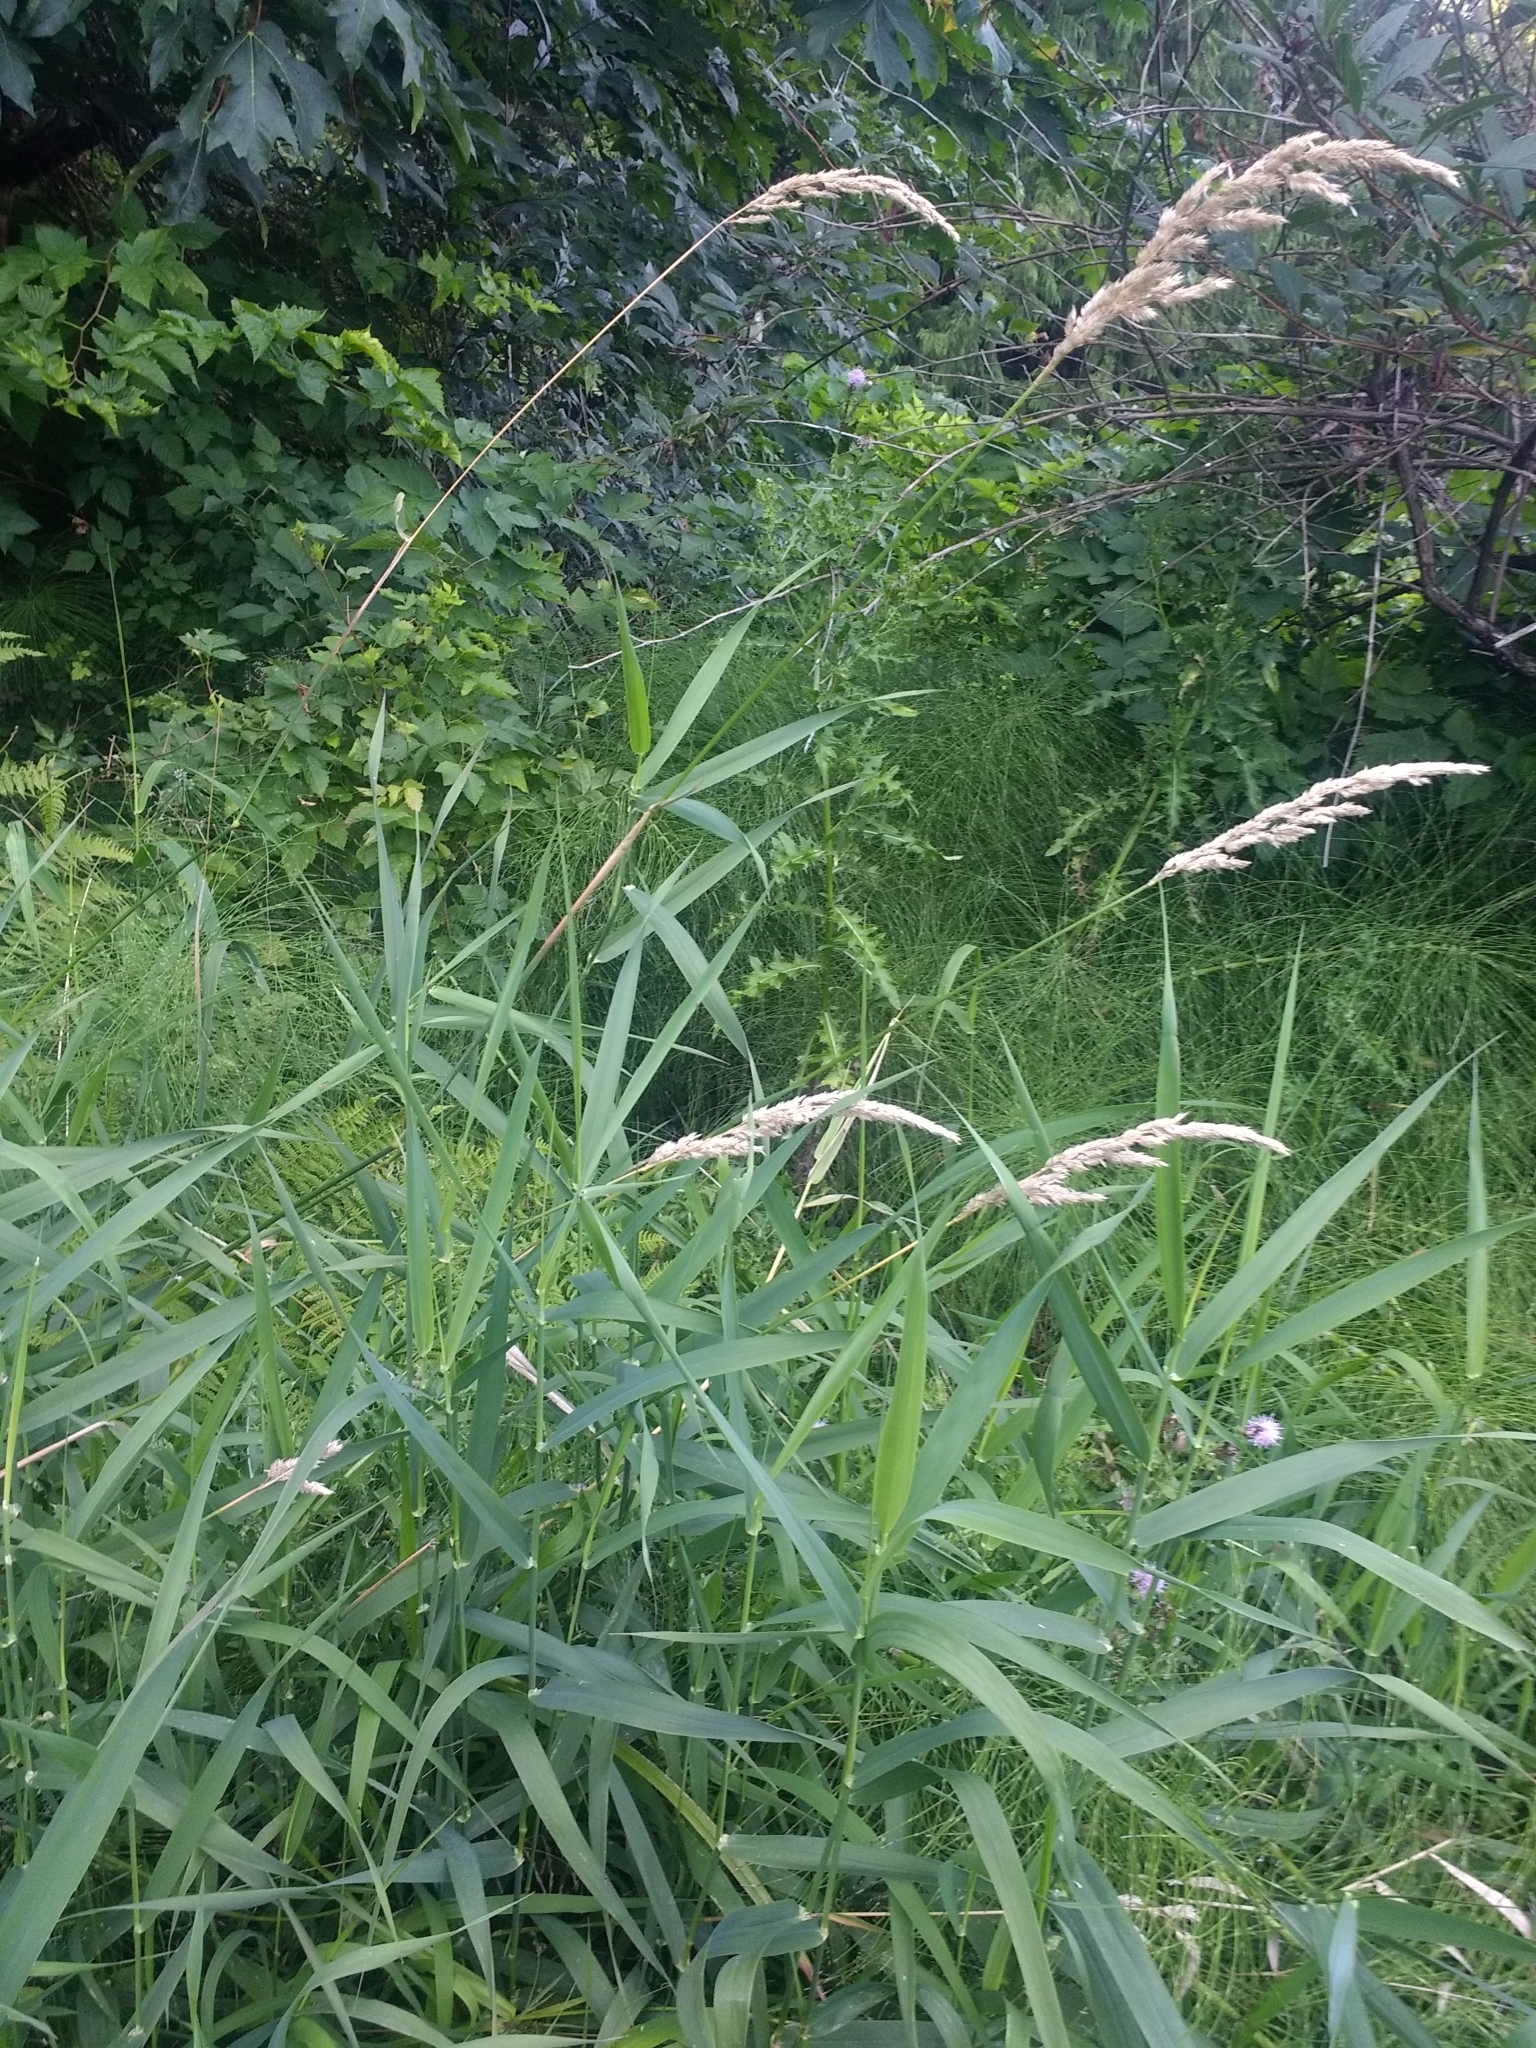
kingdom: Plantae
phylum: Tracheophyta
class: Liliopsida
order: Poales
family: Poaceae
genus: Phalaris
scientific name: Phalaris arundinacea
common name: Reed canary-grass
